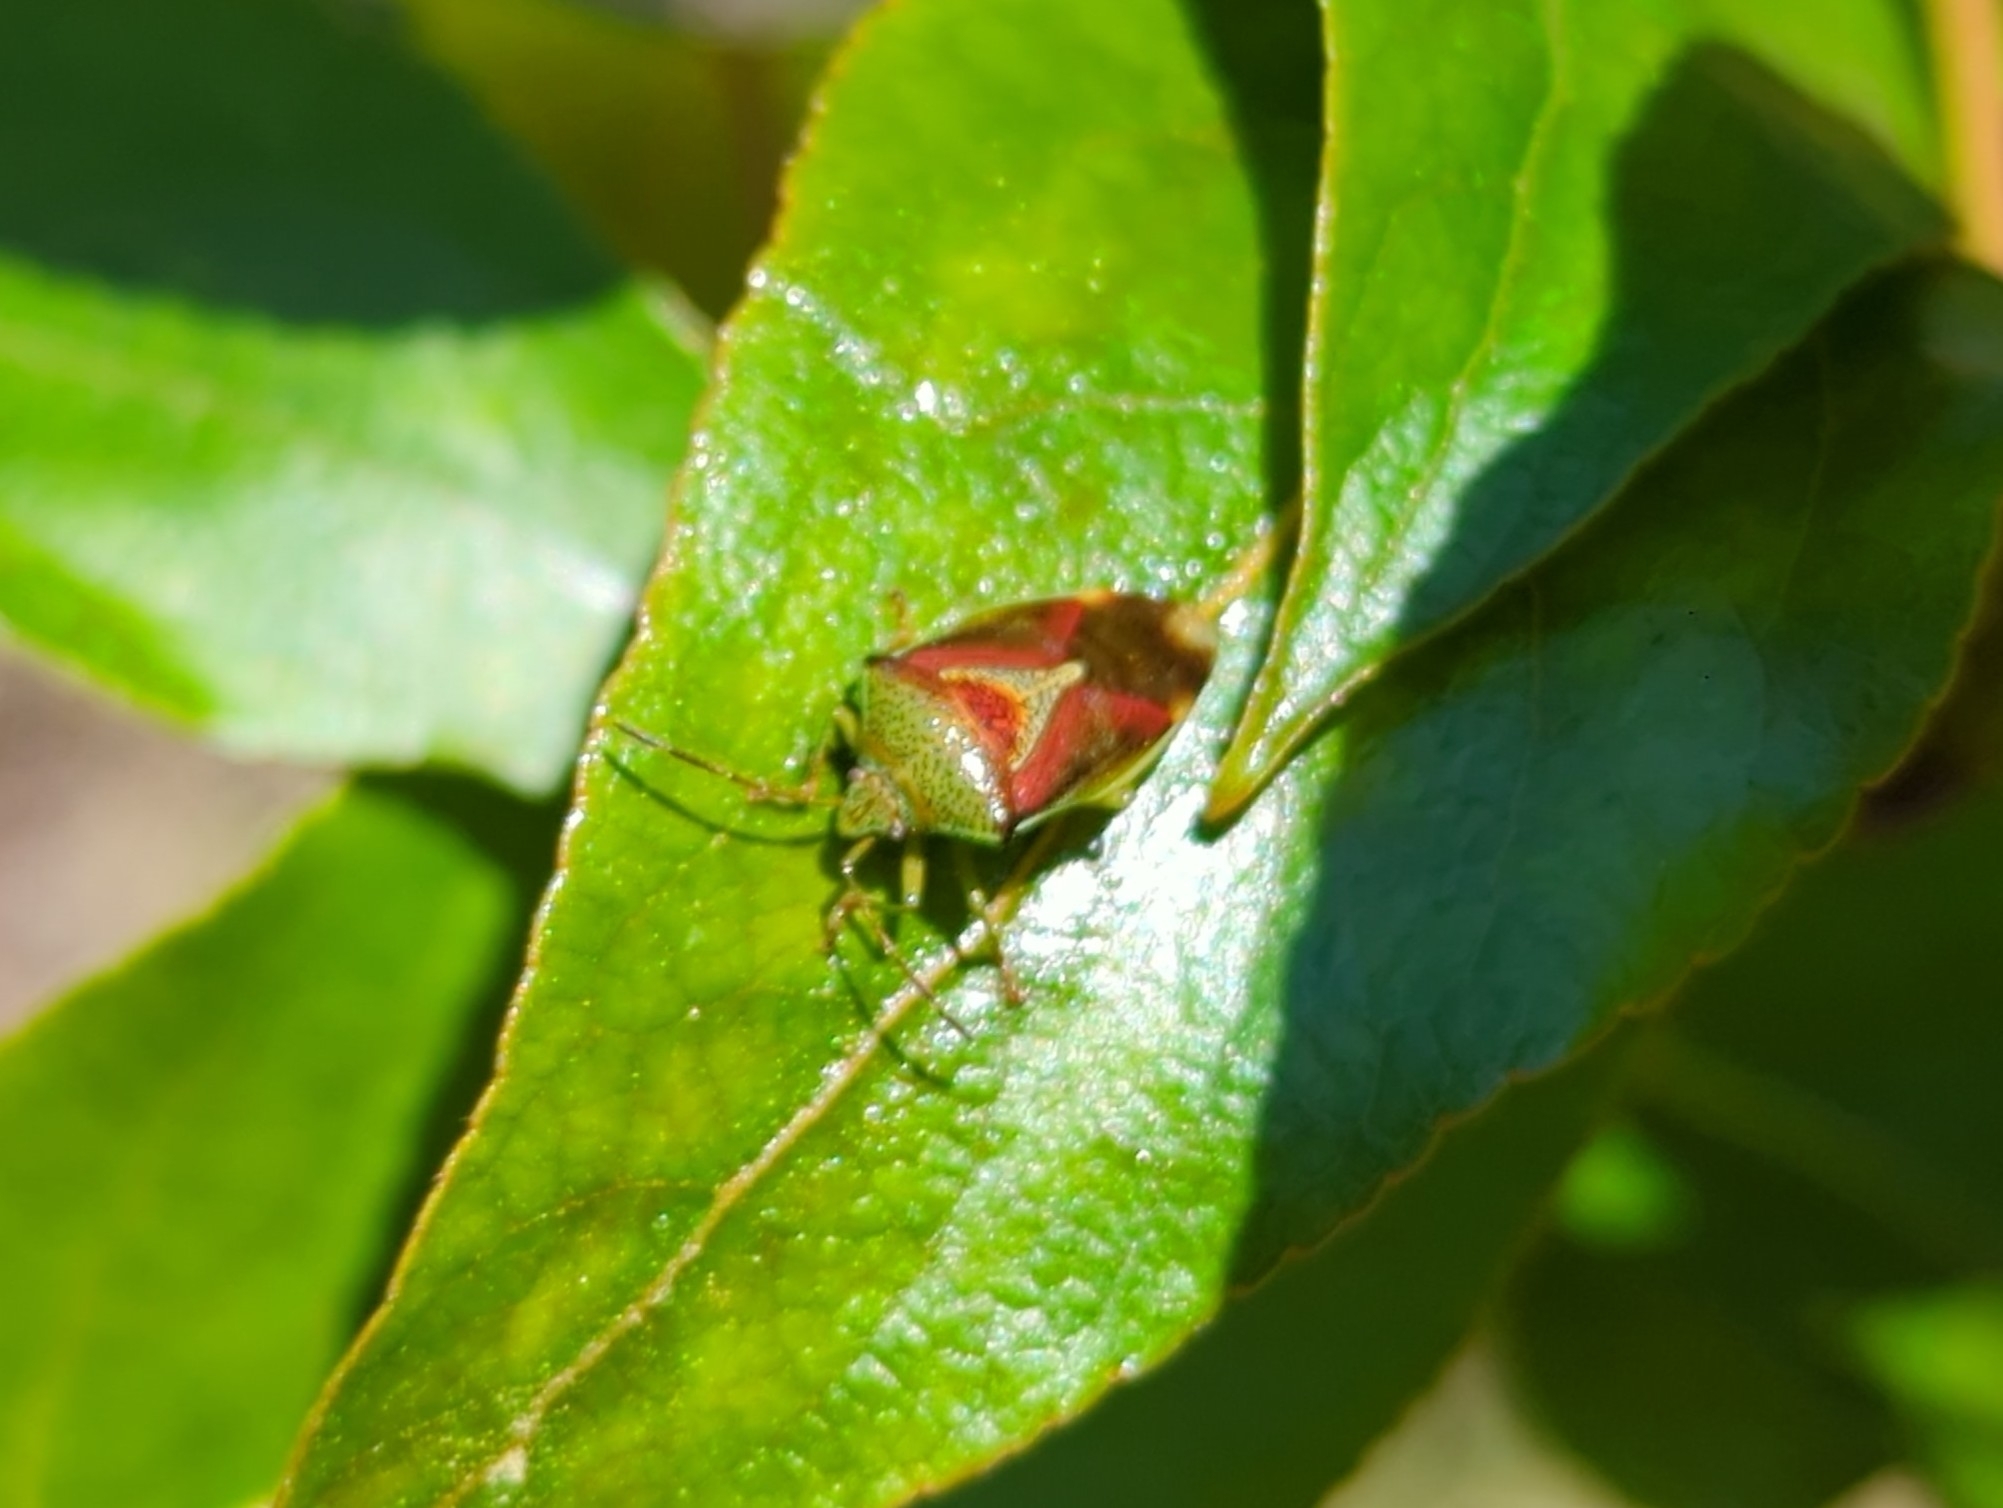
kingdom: Animalia
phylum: Arthropoda
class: Insecta
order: Hemiptera
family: Acanthosomatidae
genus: Elasmostethus
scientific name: Elasmostethus interstinctus
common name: Birch shieldbug
